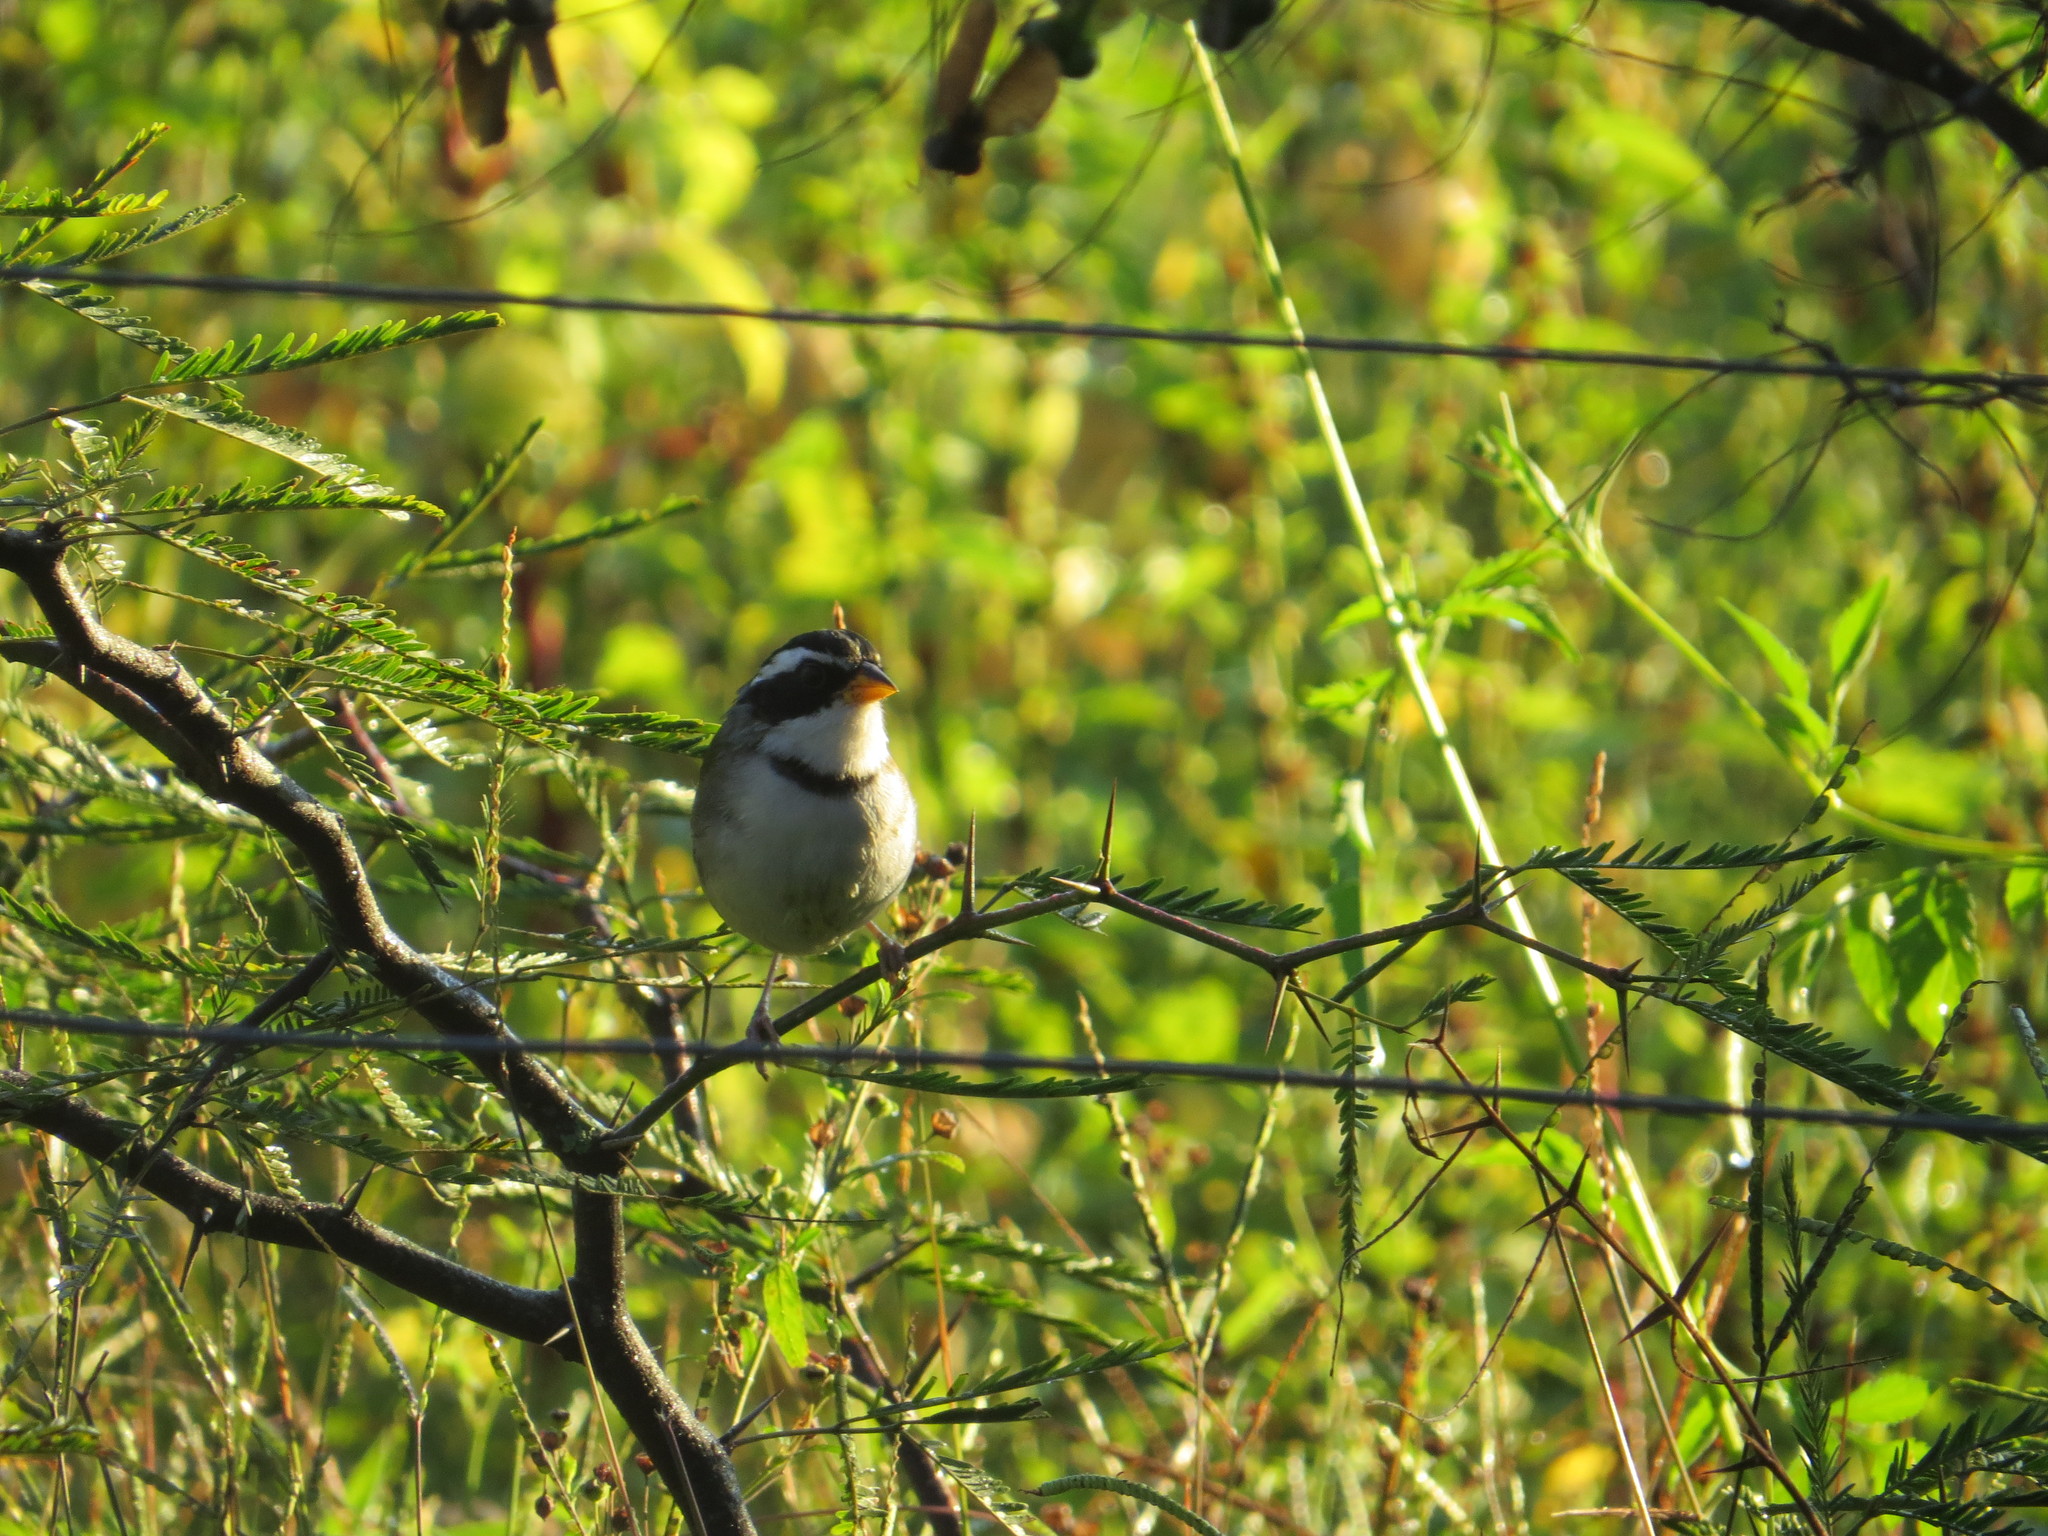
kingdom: Animalia
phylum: Chordata
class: Aves
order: Passeriformes
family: Passerellidae
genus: Arremon
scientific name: Arremon dorbignii
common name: Moss-backed sparrow
